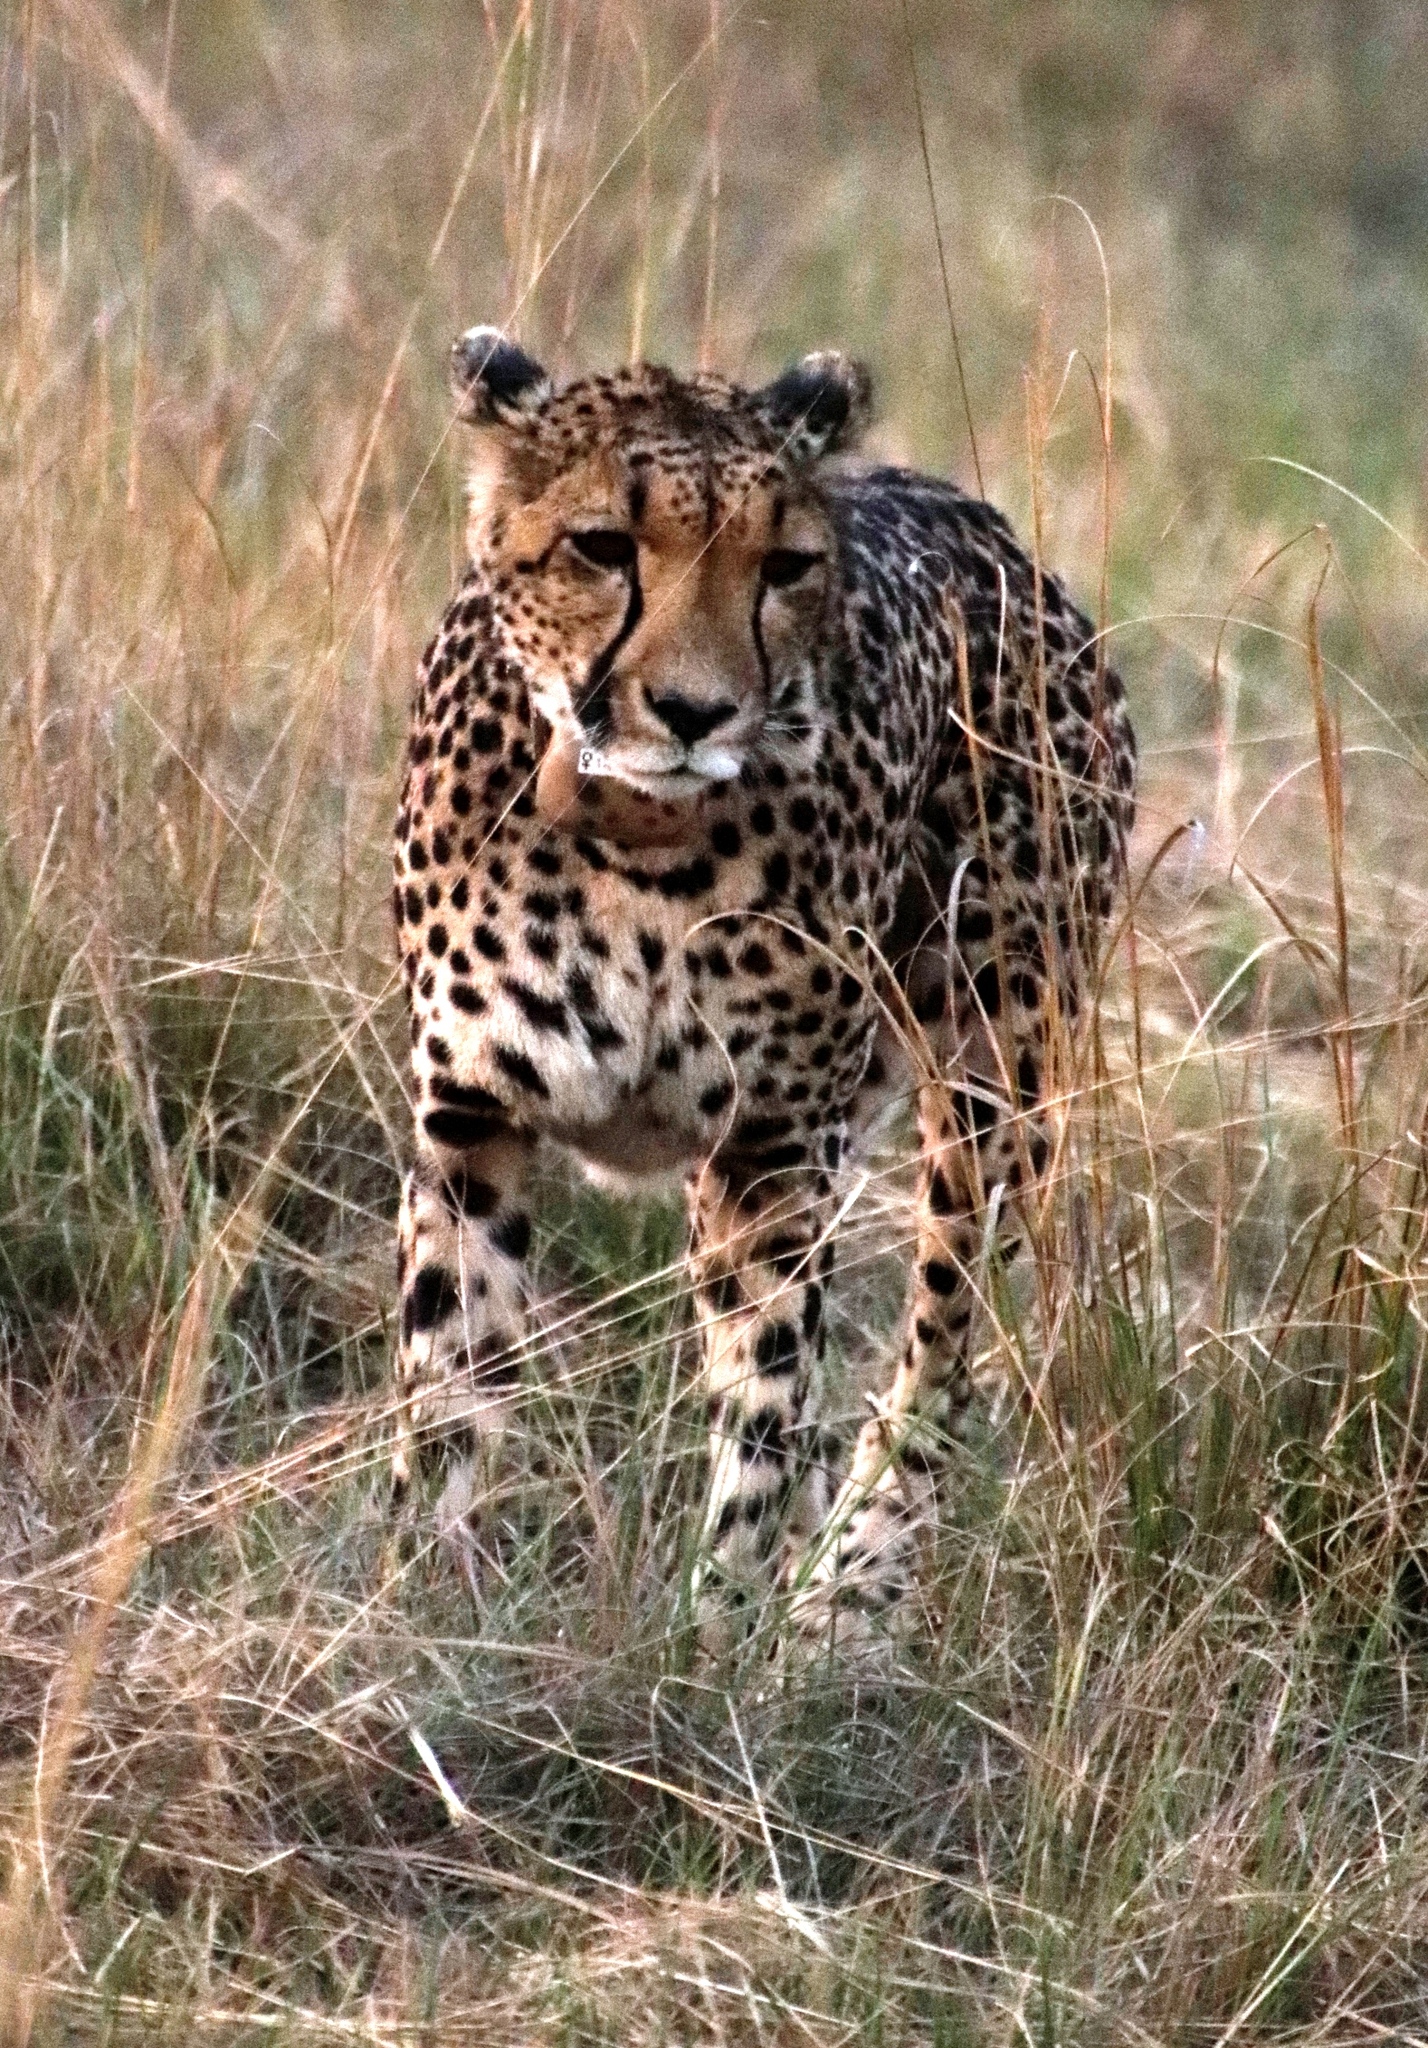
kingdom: Animalia
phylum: Chordata
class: Mammalia
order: Carnivora
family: Felidae
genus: Acinonyx
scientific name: Acinonyx jubatus
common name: Cheetah
